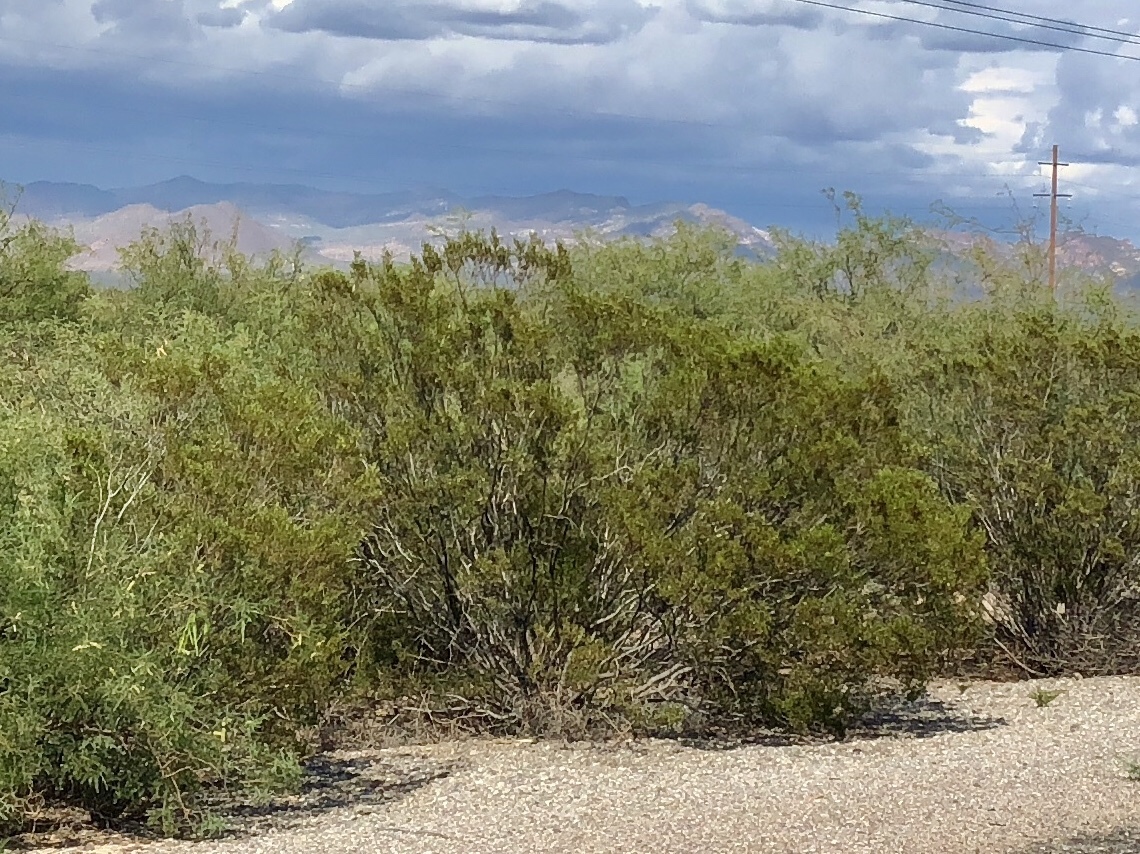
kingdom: Plantae
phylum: Tracheophyta
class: Magnoliopsida
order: Zygophyllales
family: Zygophyllaceae
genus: Larrea
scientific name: Larrea tridentata
